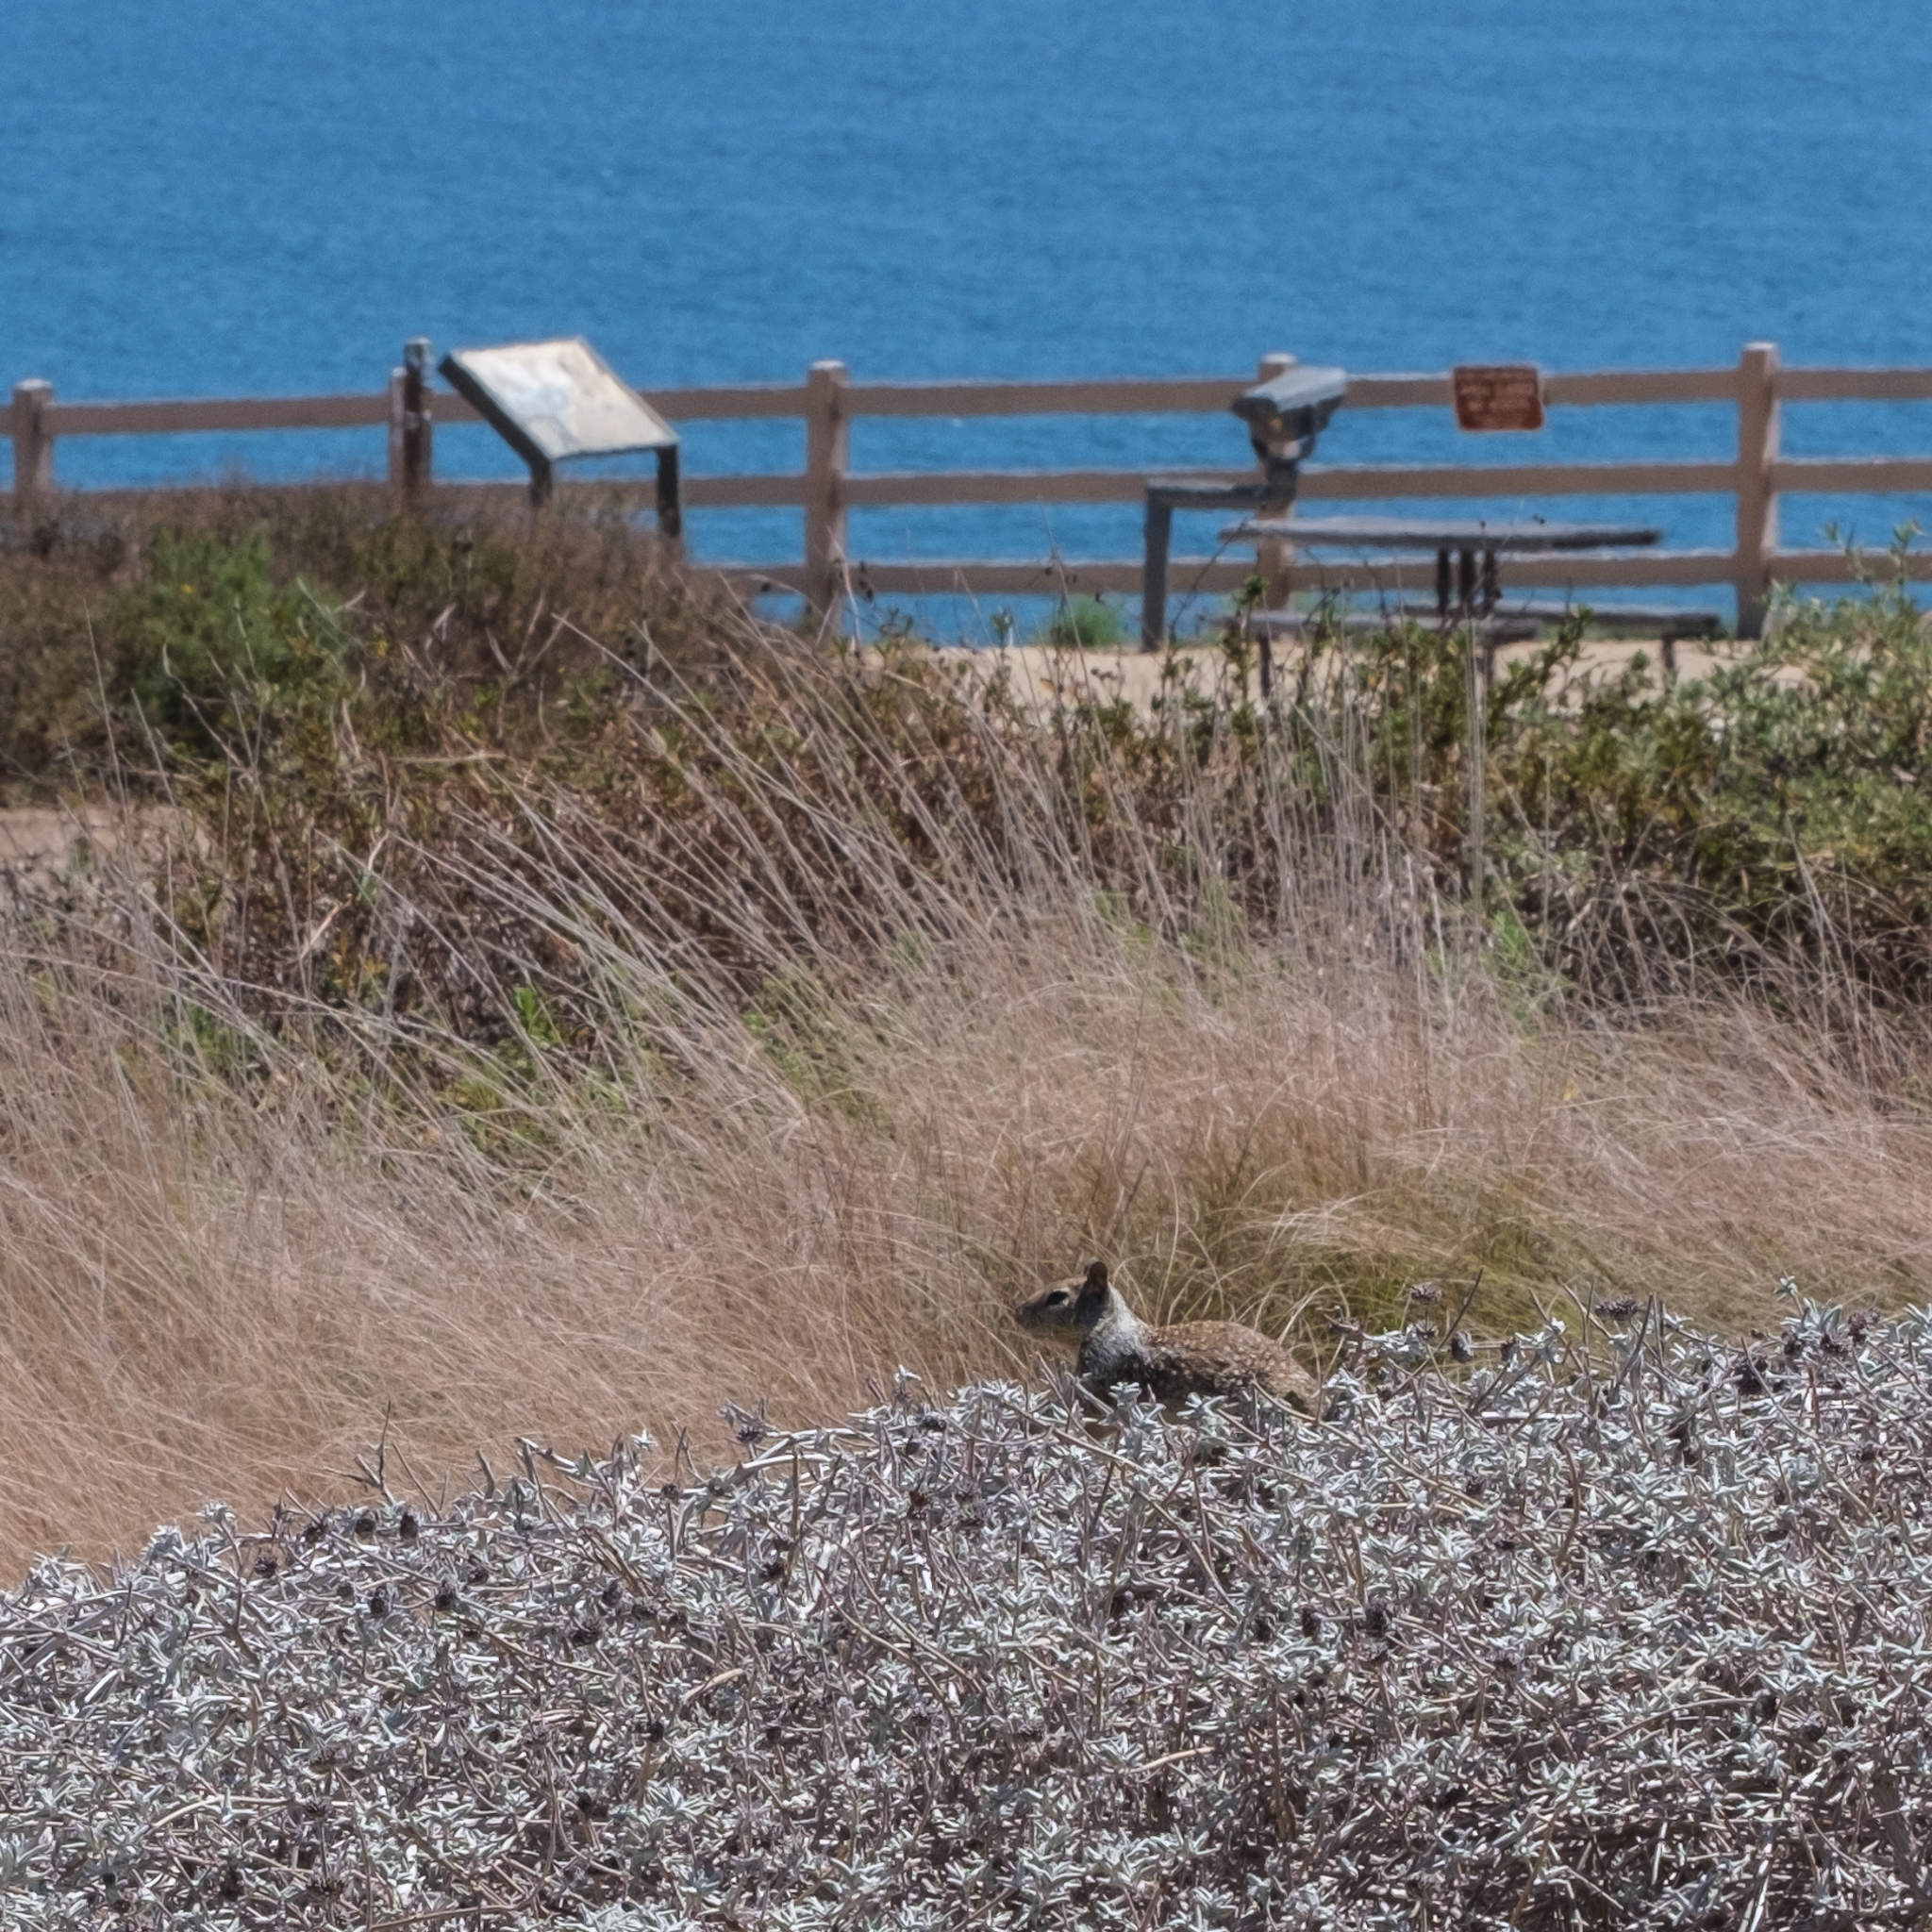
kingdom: Animalia
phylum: Chordata
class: Mammalia
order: Rodentia
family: Sciuridae
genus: Otospermophilus
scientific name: Otospermophilus beecheyi
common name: California ground squirrel
